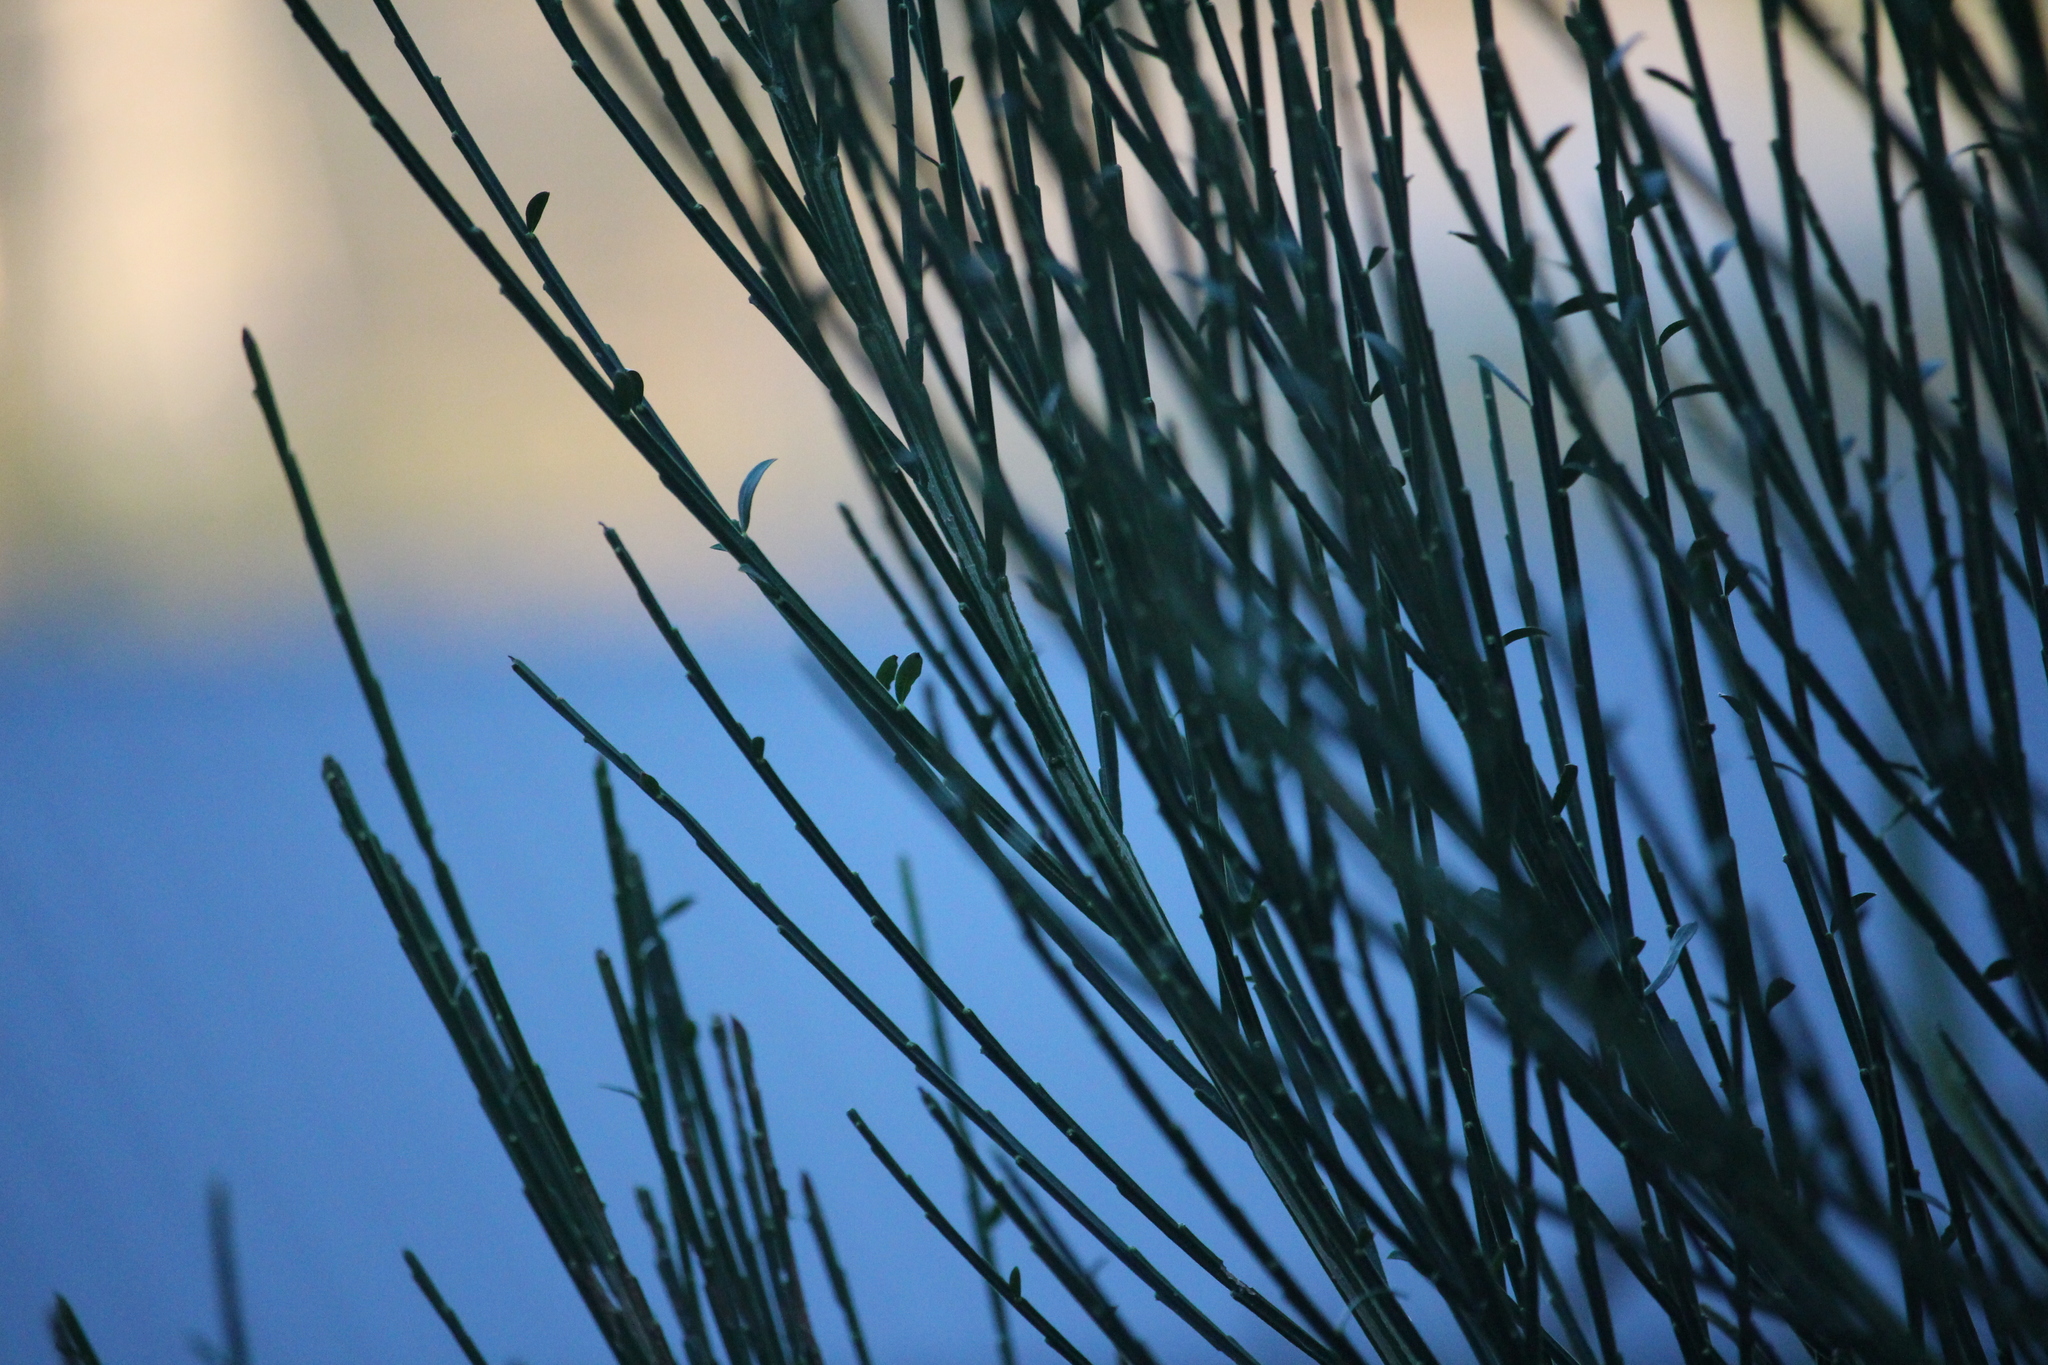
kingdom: Plantae
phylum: Tracheophyta
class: Magnoliopsida
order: Fabales
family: Fabaceae
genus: Cytisus
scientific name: Cytisus scoparius
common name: Scotch broom
